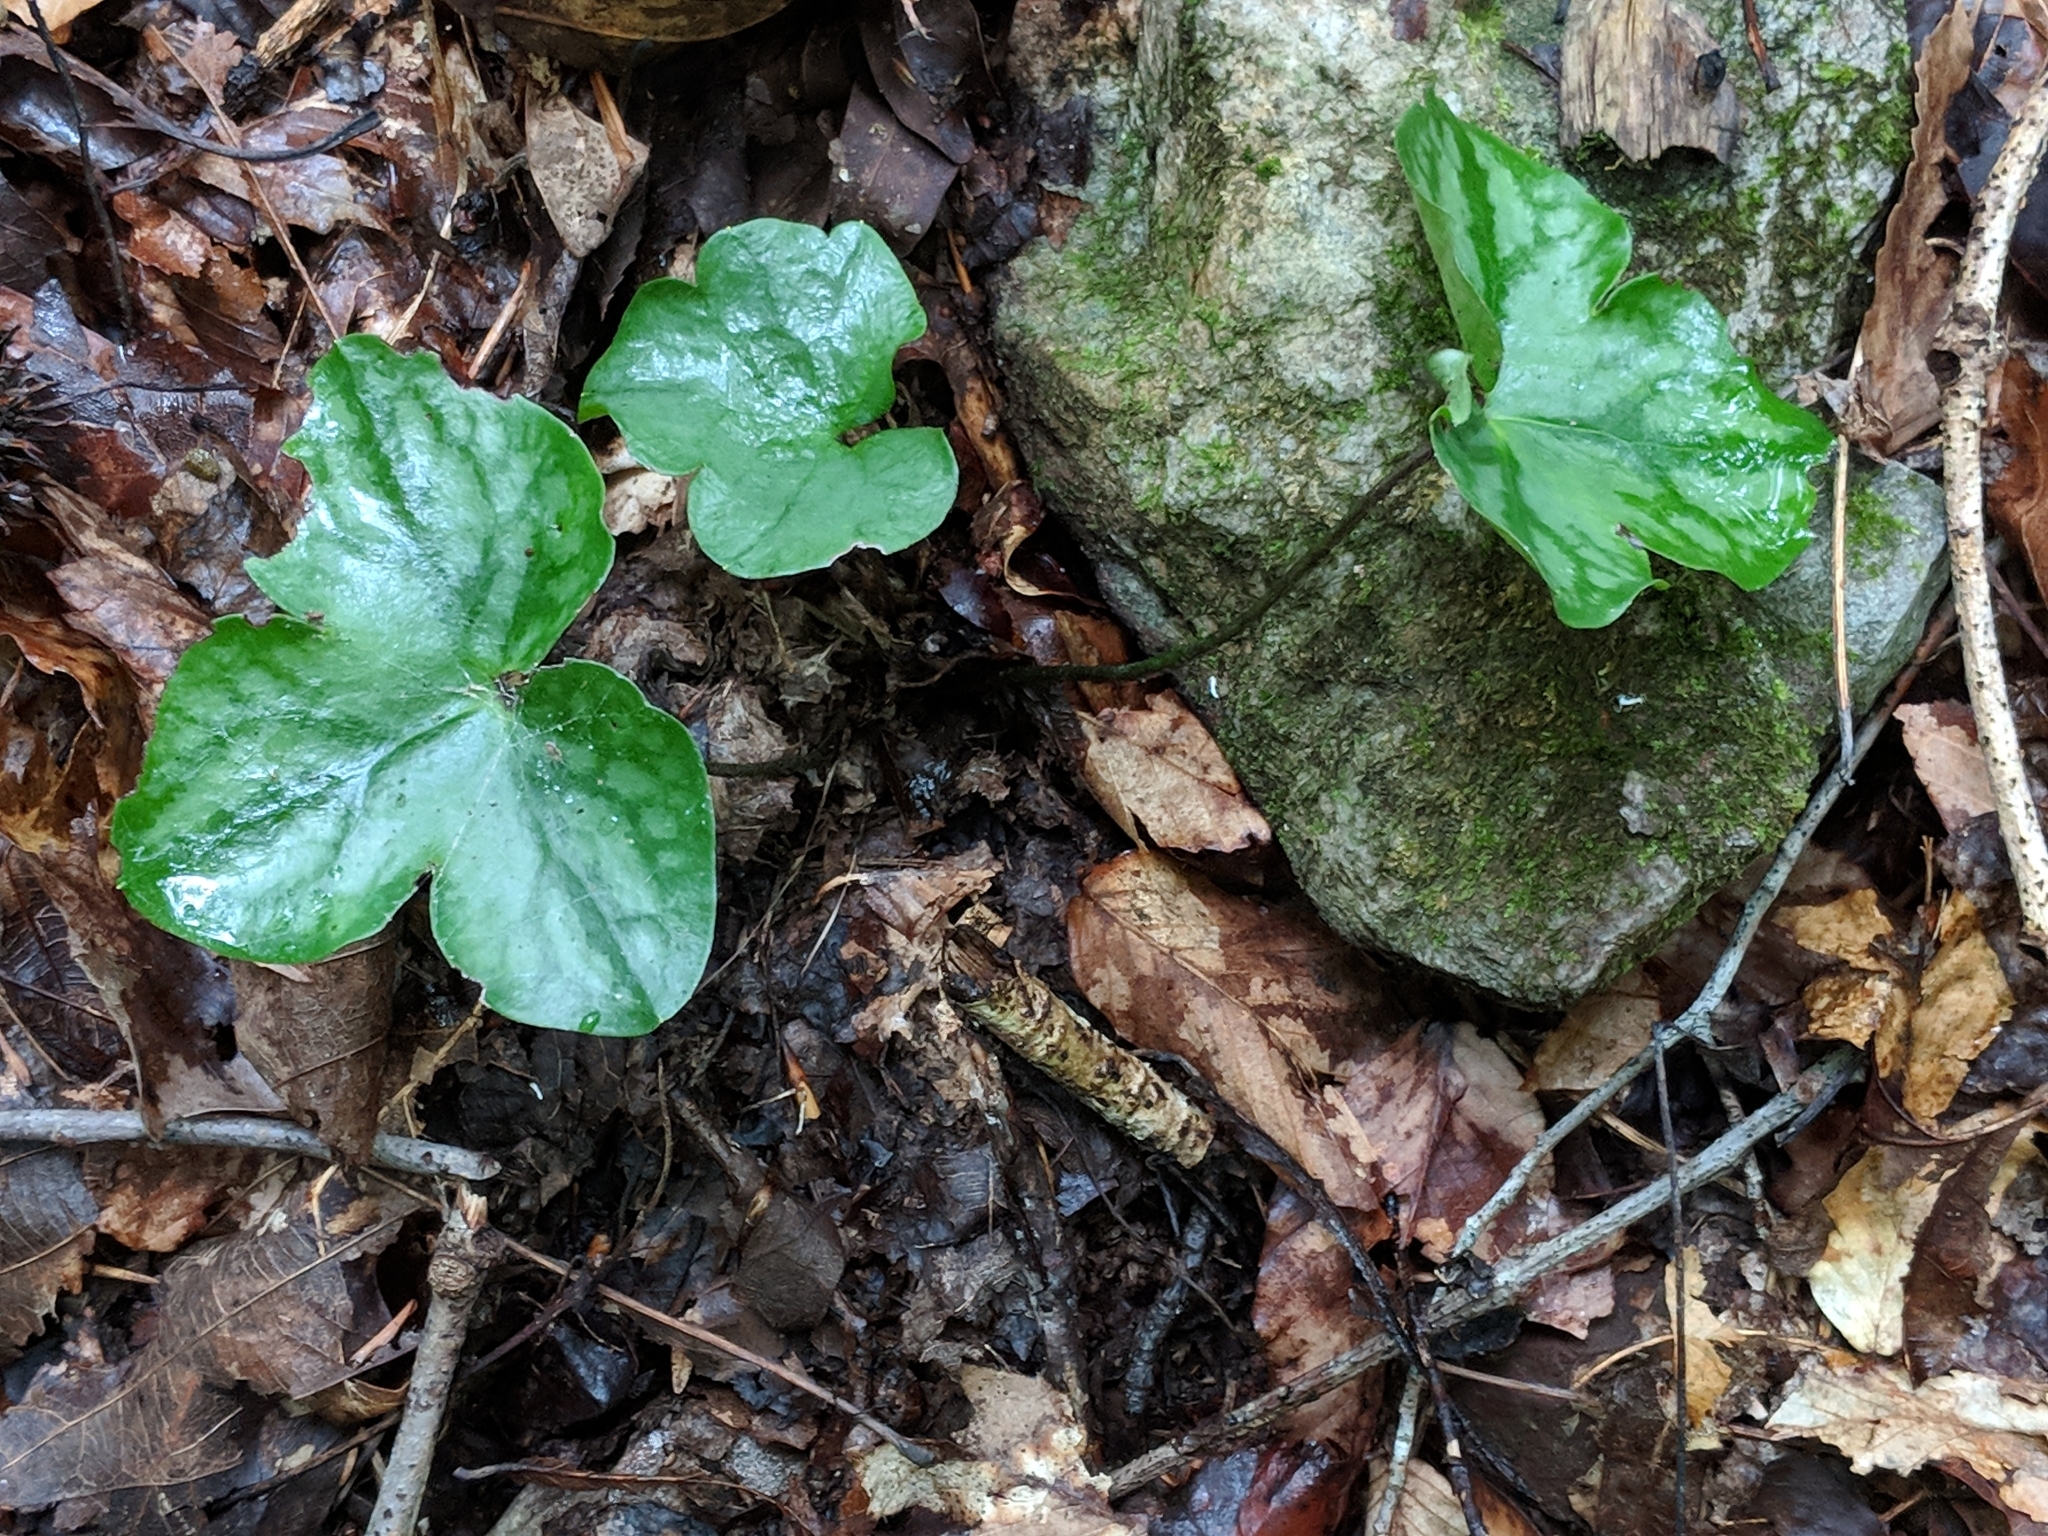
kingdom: Plantae
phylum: Tracheophyta
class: Magnoliopsida
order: Ranunculales
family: Ranunculaceae
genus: Hepatica
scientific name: Hepatica americana
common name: American hepatica
